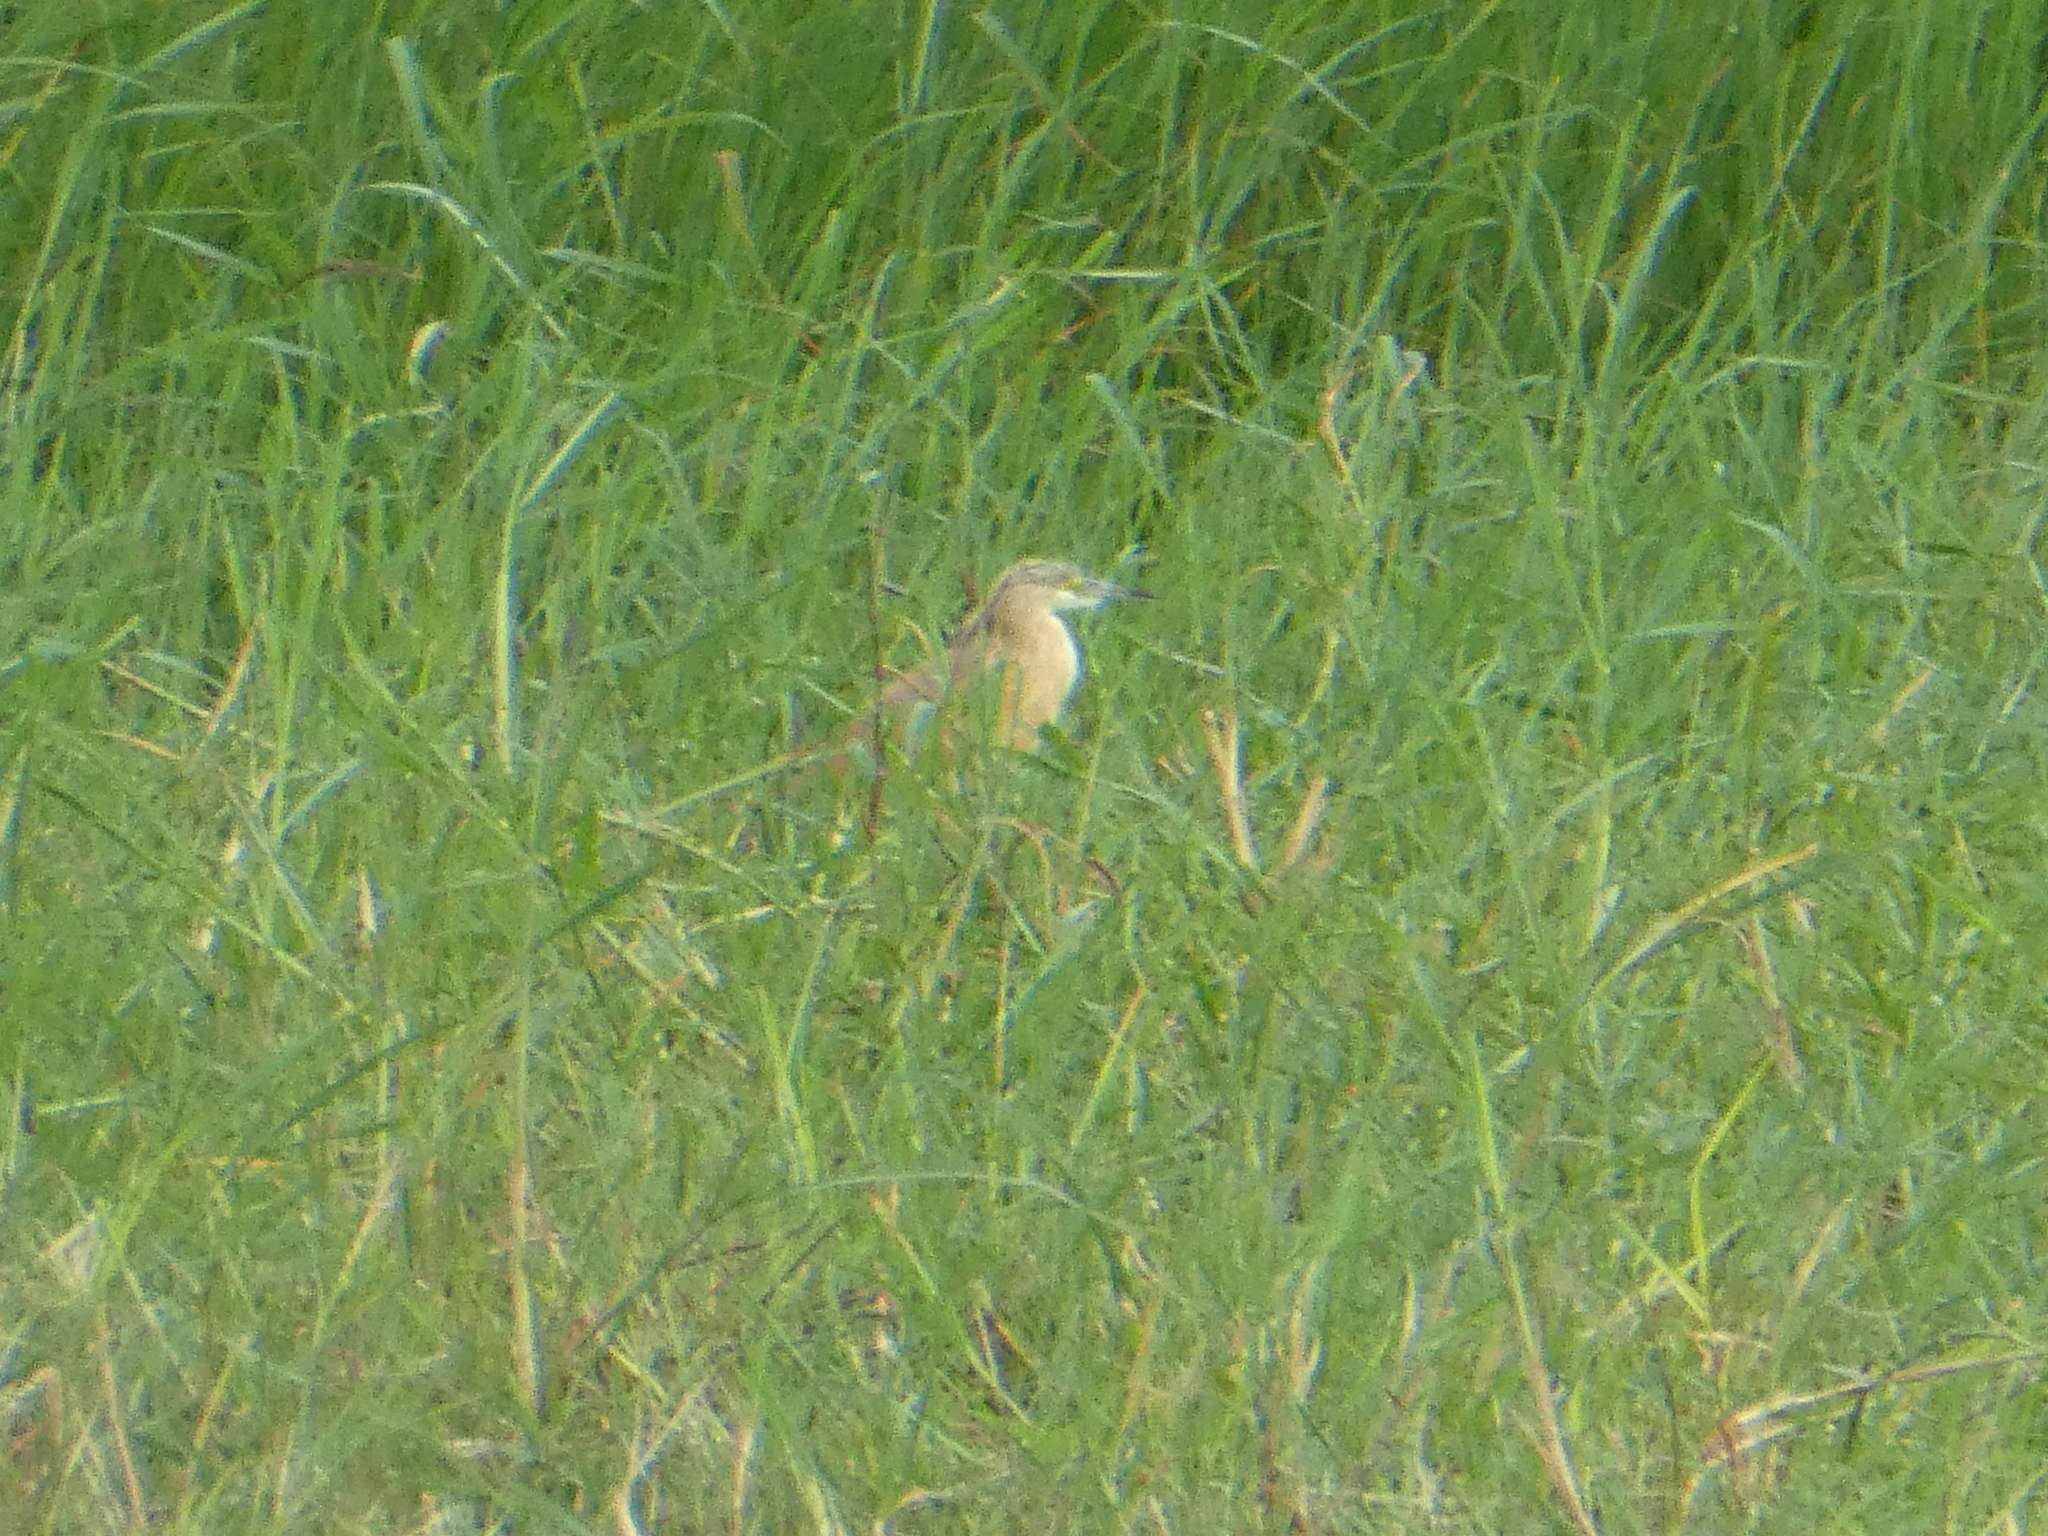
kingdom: Animalia
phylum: Chordata
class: Aves
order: Pelecaniformes
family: Ardeidae
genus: Ardeola
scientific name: Ardeola ralloides
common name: Squacco heron
